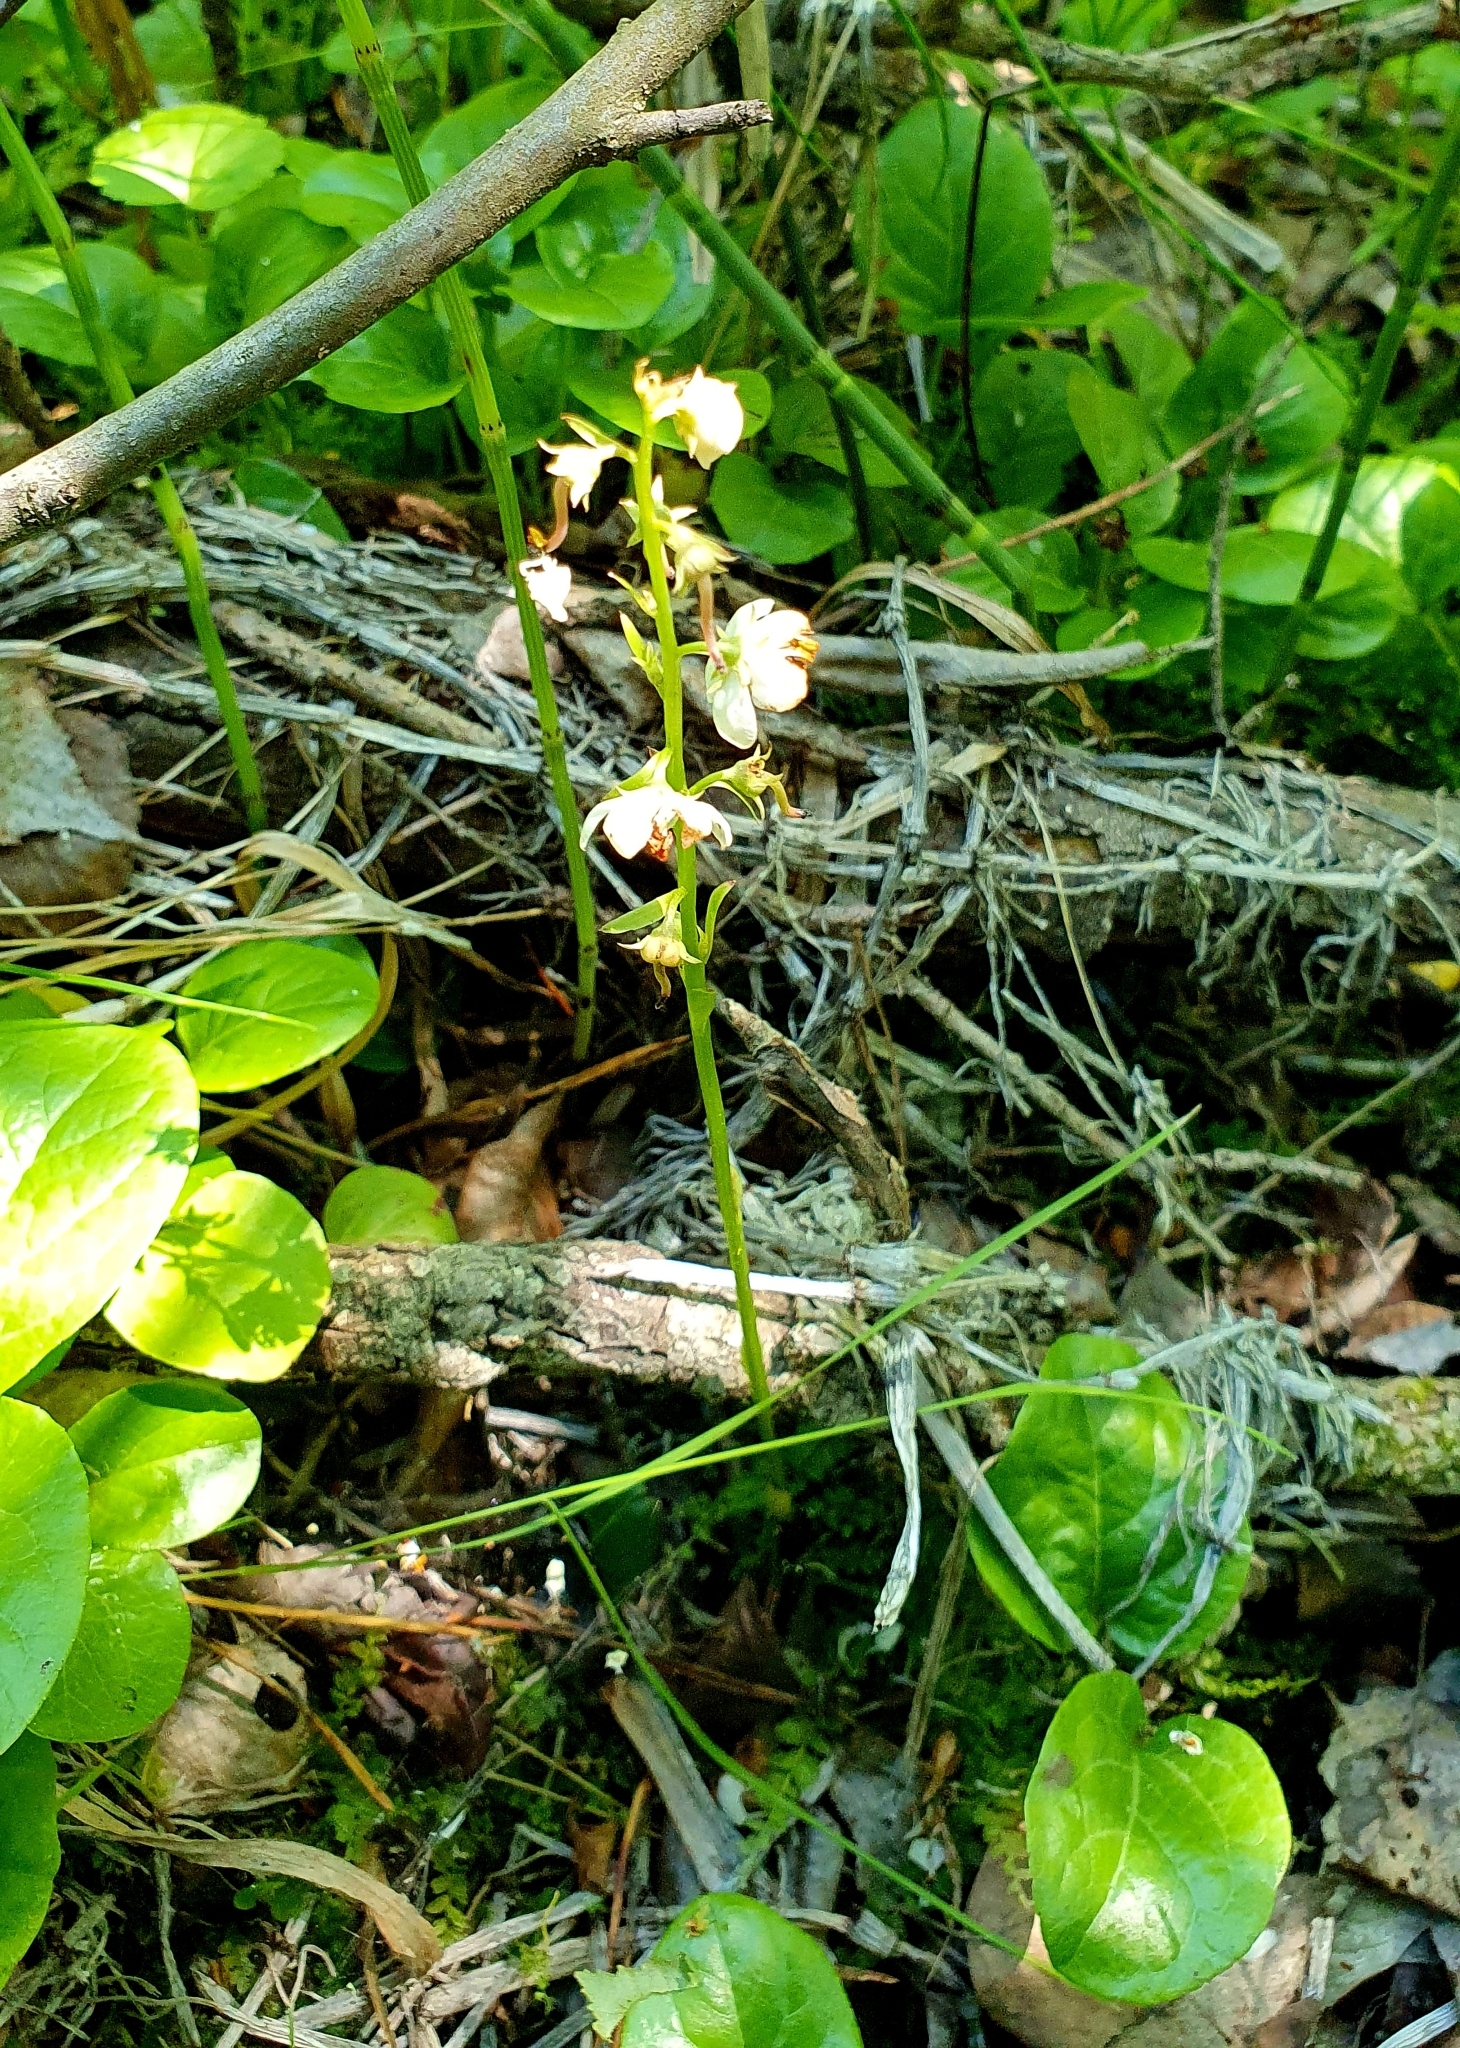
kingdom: Plantae
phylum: Tracheophyta
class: Magnoliopsida
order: Ericales
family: Ericaceae
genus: Pyrola
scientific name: Pyrola rotundifolia
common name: Round-leaved wintergreen
